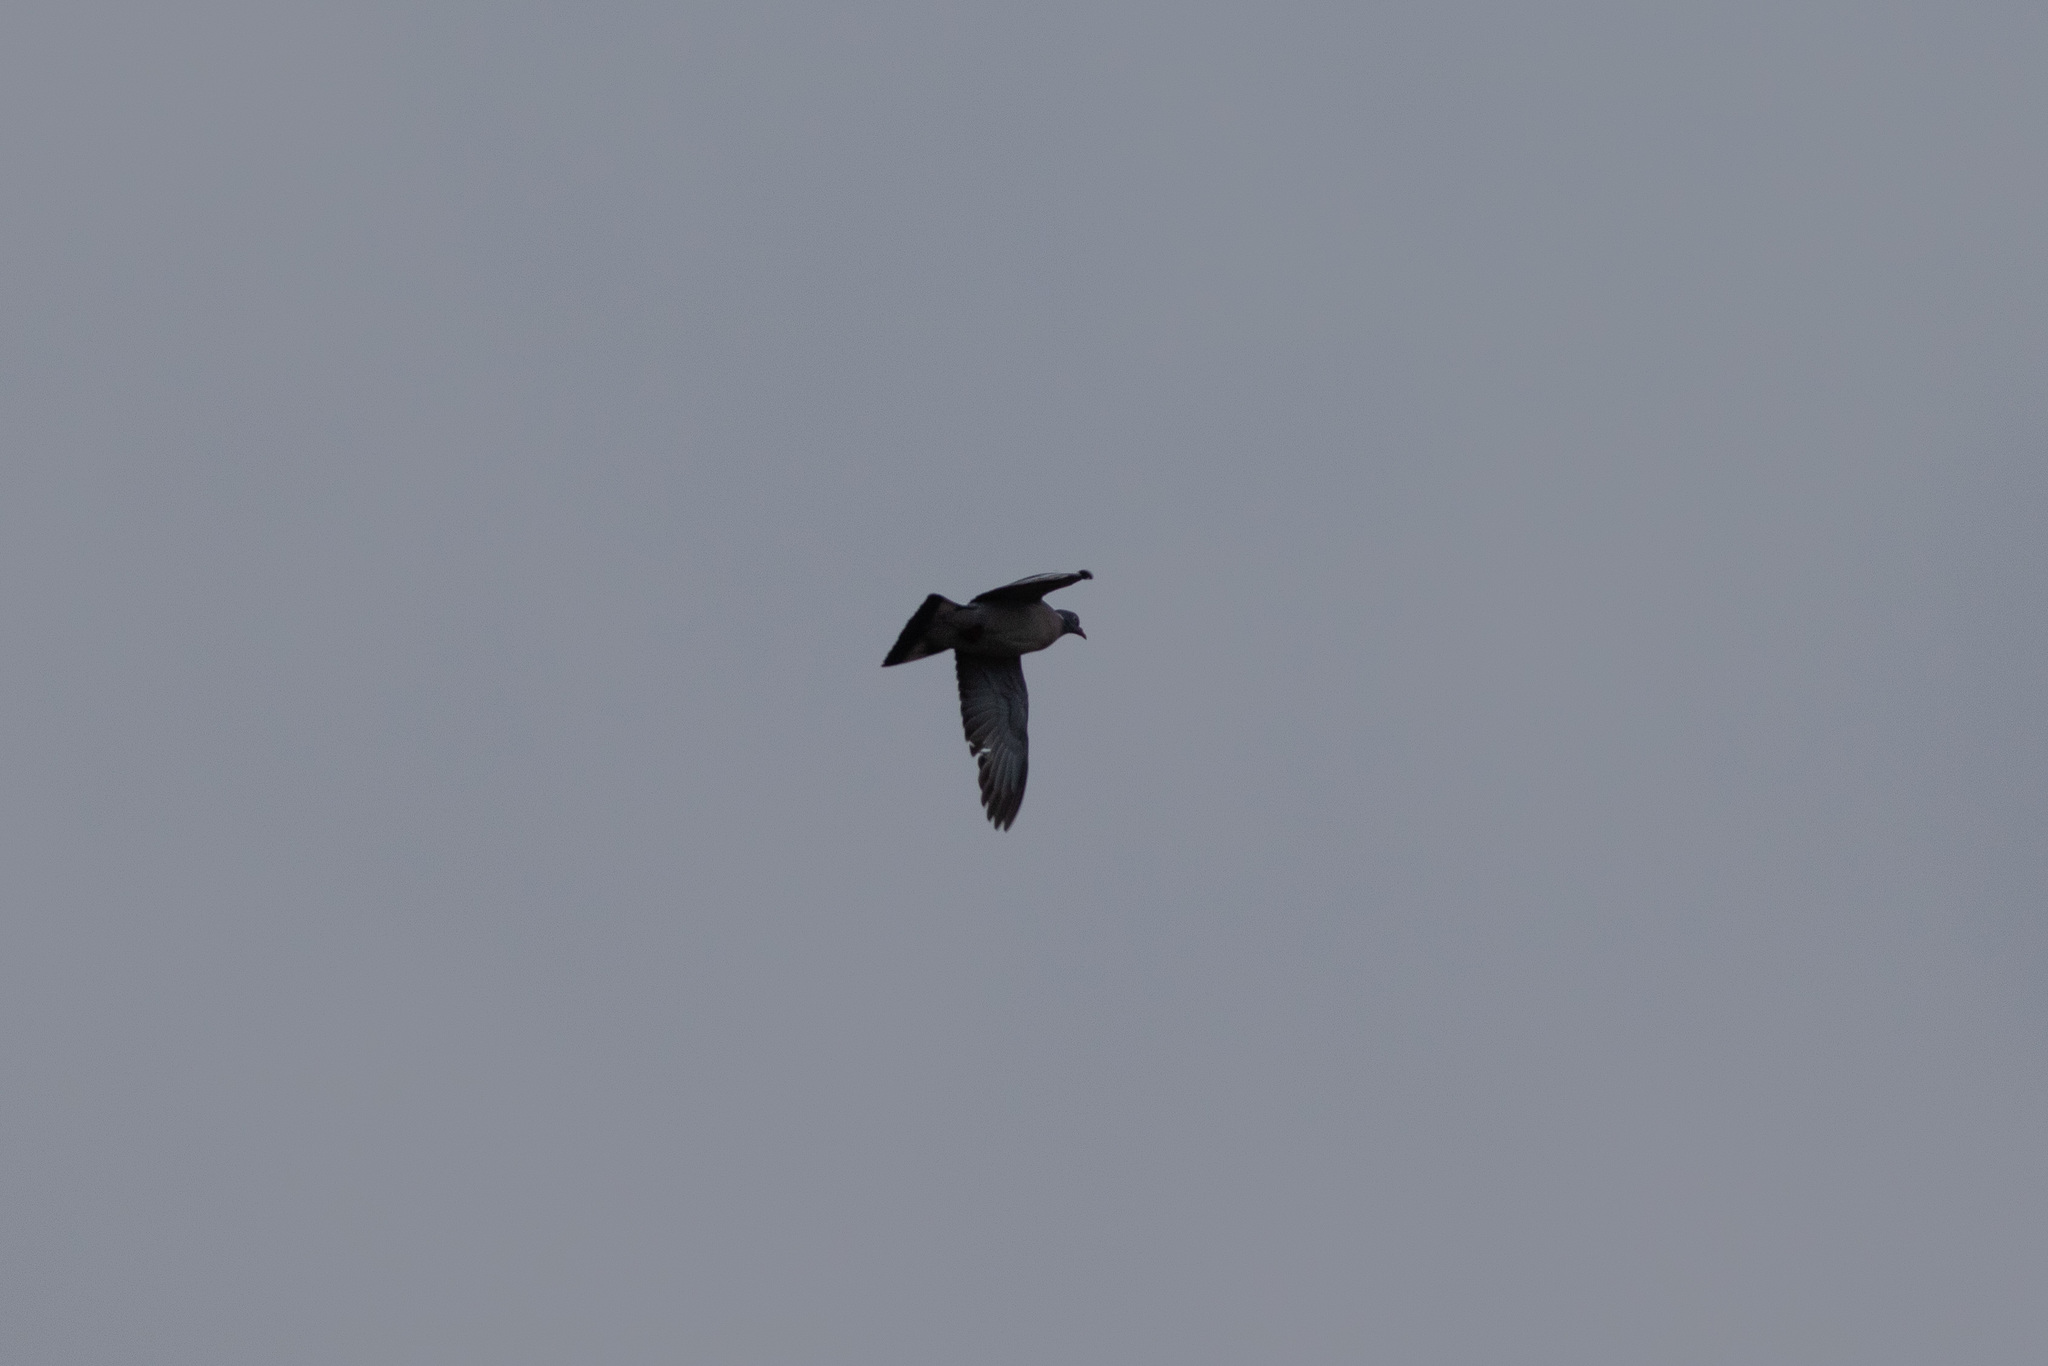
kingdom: Animalia
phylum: Chordata
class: Aves
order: Columbiformes
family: Columbidae
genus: Columba
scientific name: Columba palumbus
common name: Common wood pigeon
